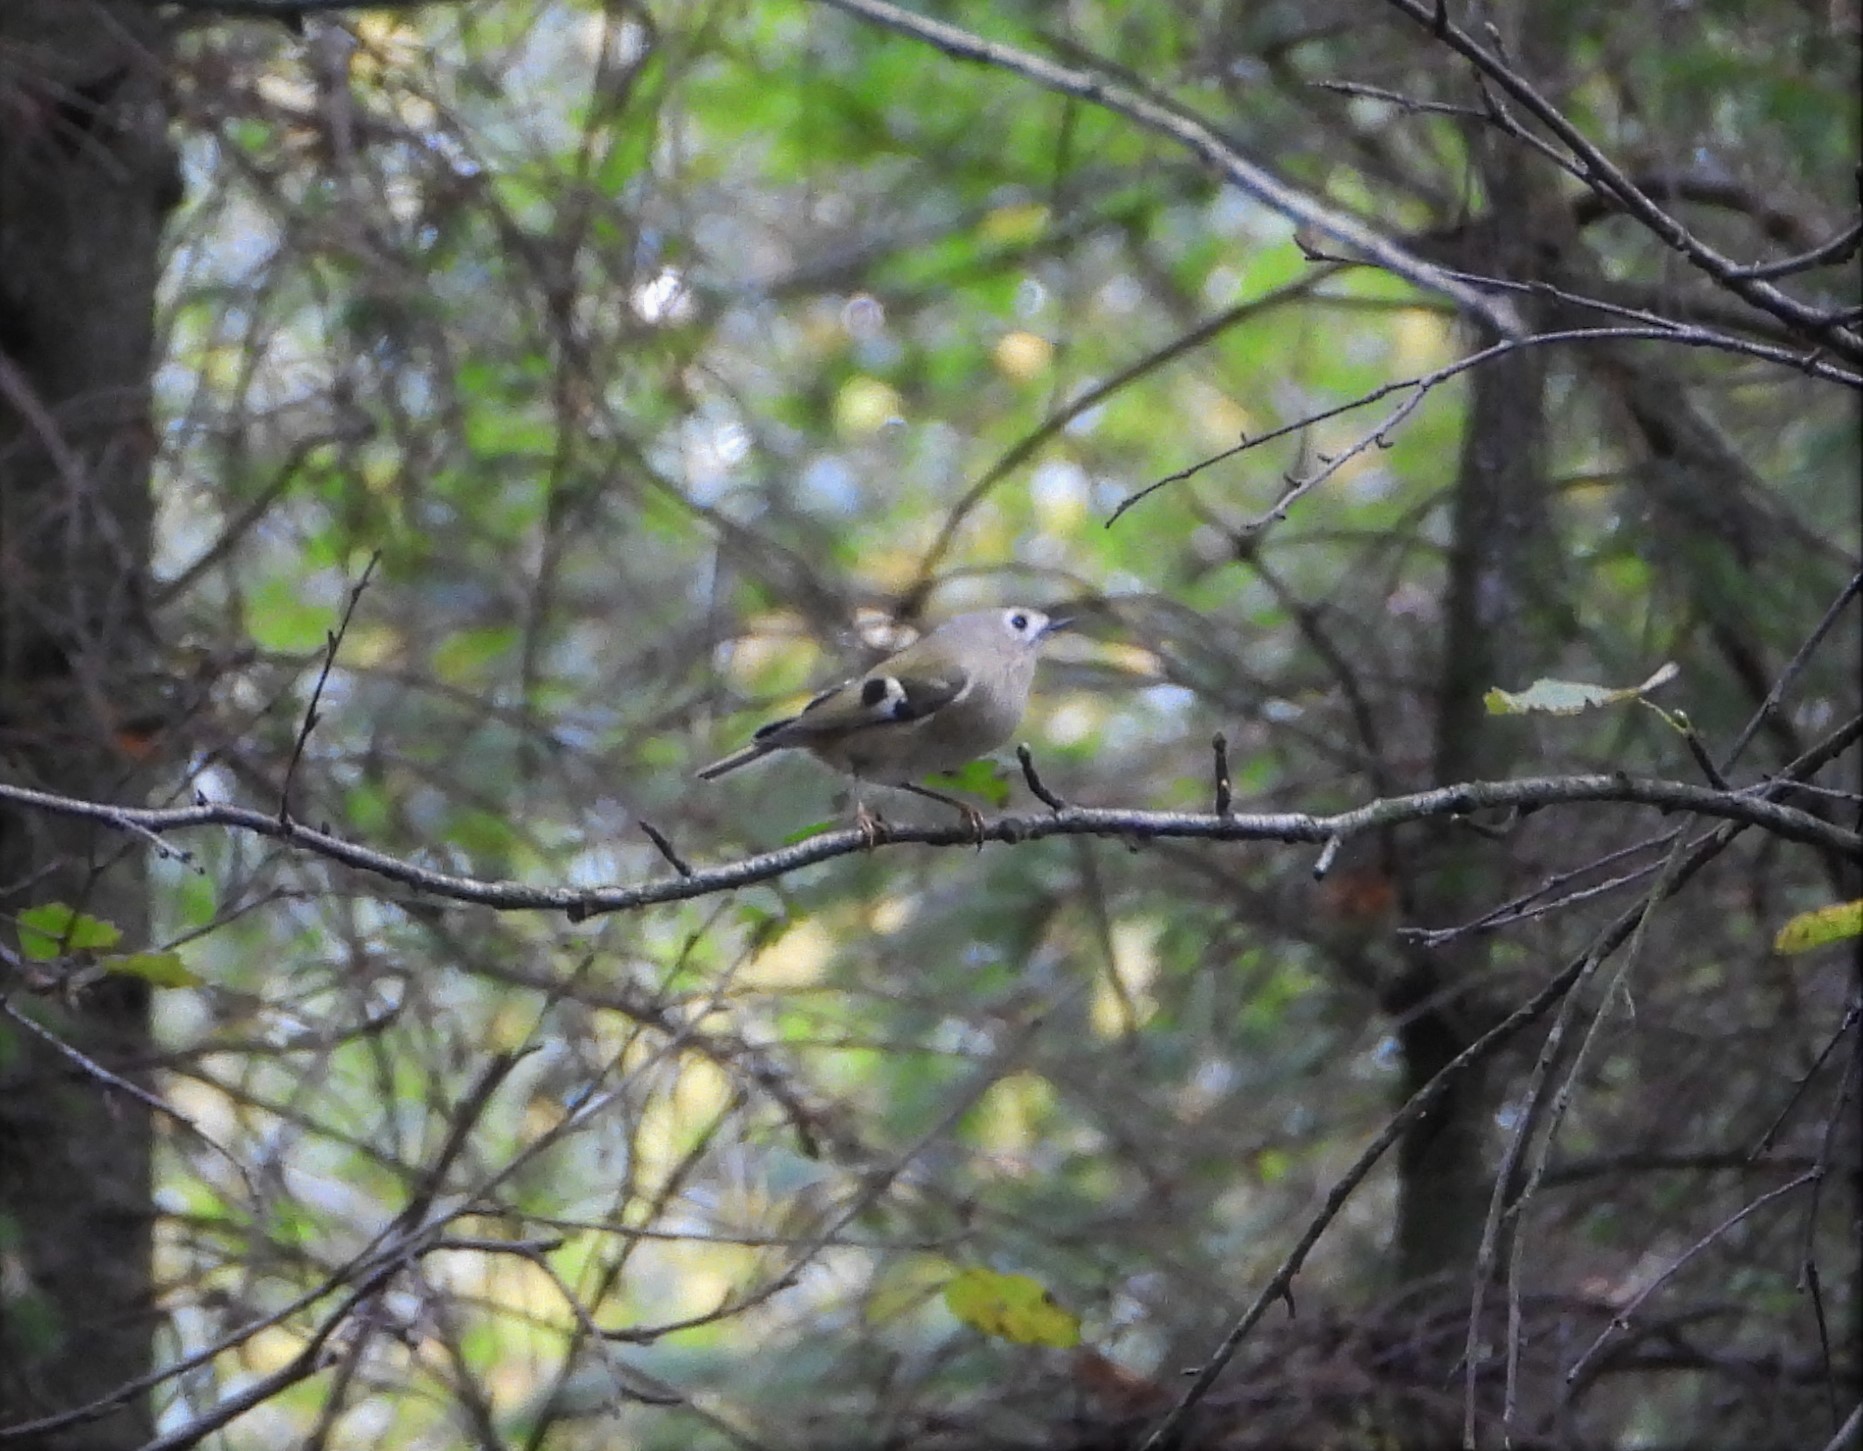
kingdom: Animalia
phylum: Chordata
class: Aves
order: Passeriformes
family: Regulidae
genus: Regulus
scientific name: Regulus regulus
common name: Goldcrest
